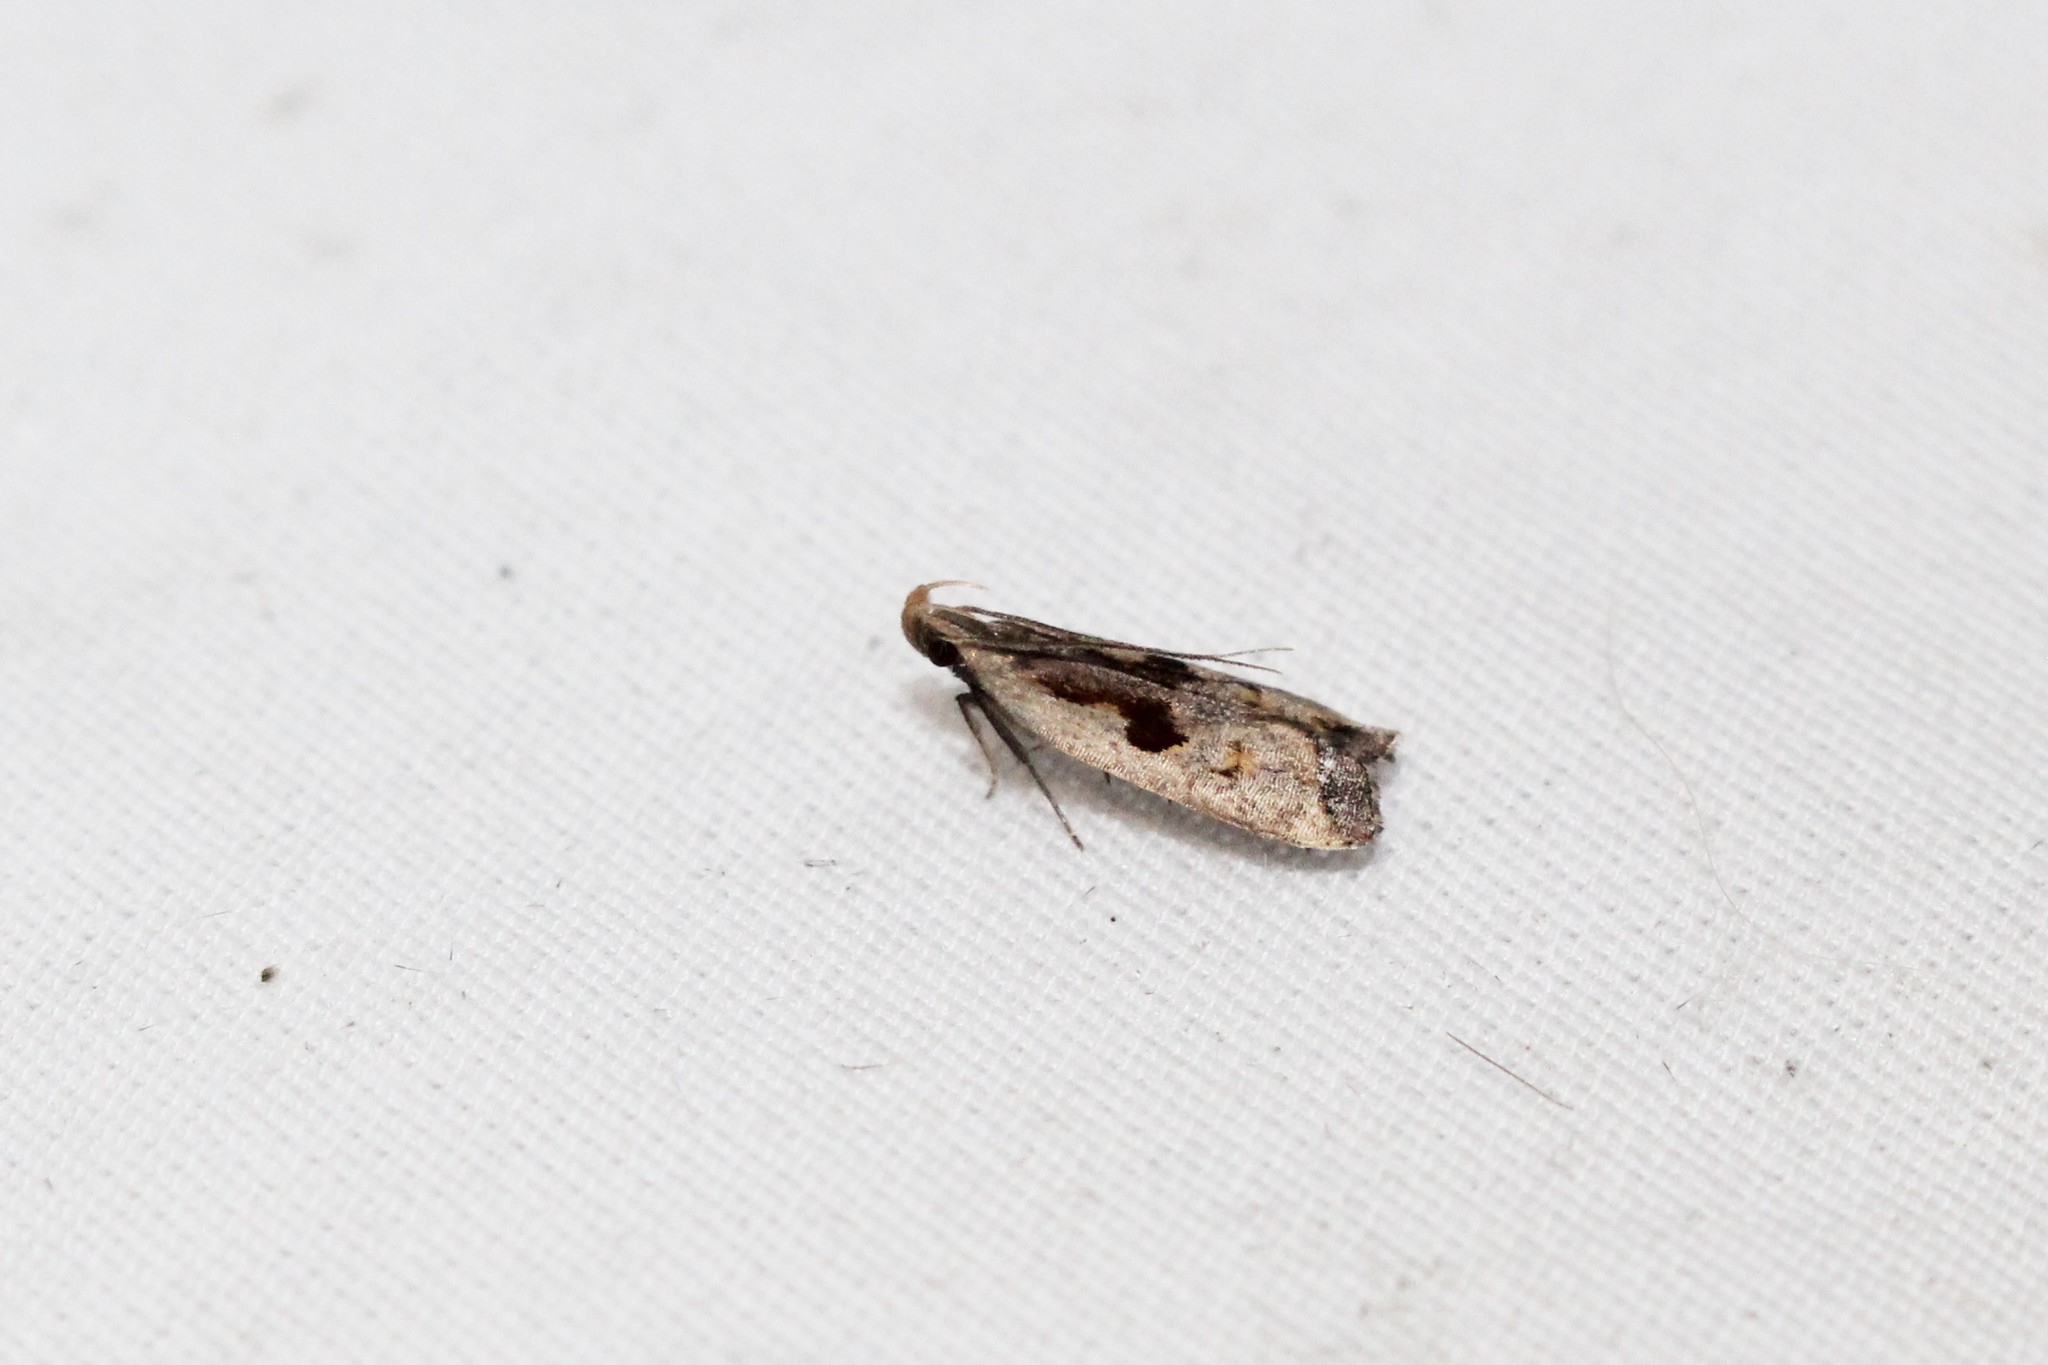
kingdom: Animalia
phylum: Arthropoda
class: Insecta
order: Lepidoptera
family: Gelechiidae
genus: Dichomeris
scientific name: Dichomeris furia
